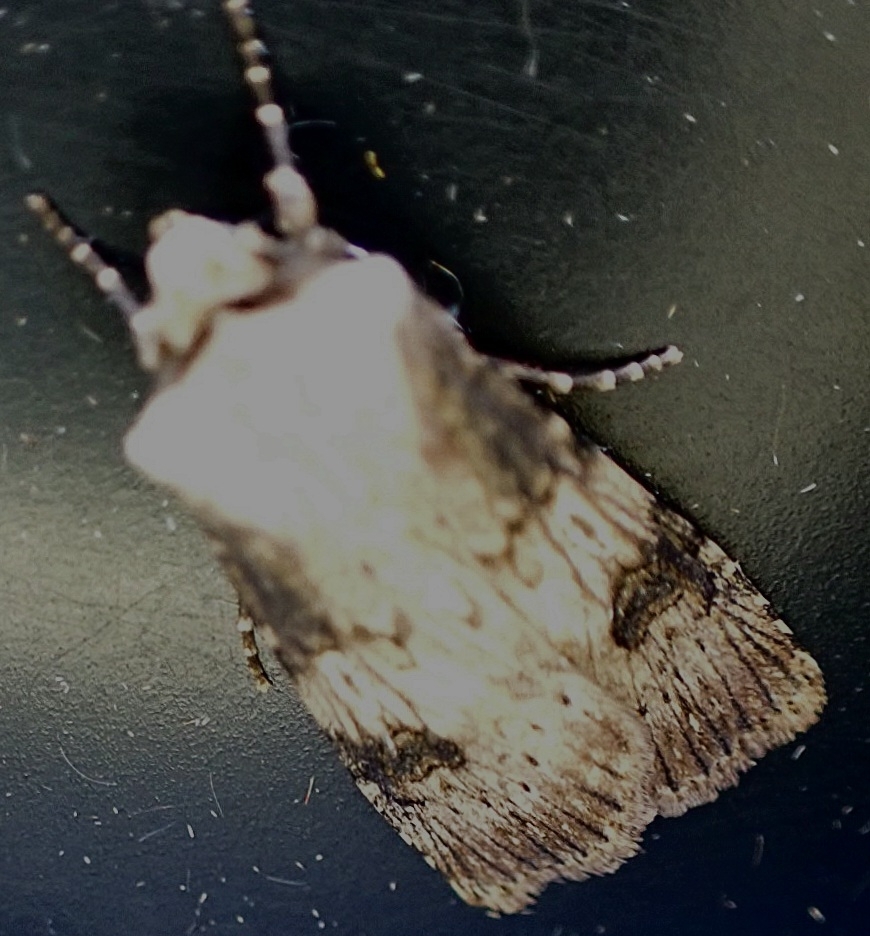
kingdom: Animalia
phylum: Arthropoda
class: Insecta
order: Lepidoptera
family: Noctuidae
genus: Agrotis
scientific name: Agrotis puta
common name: Shuttle-shaped dart
